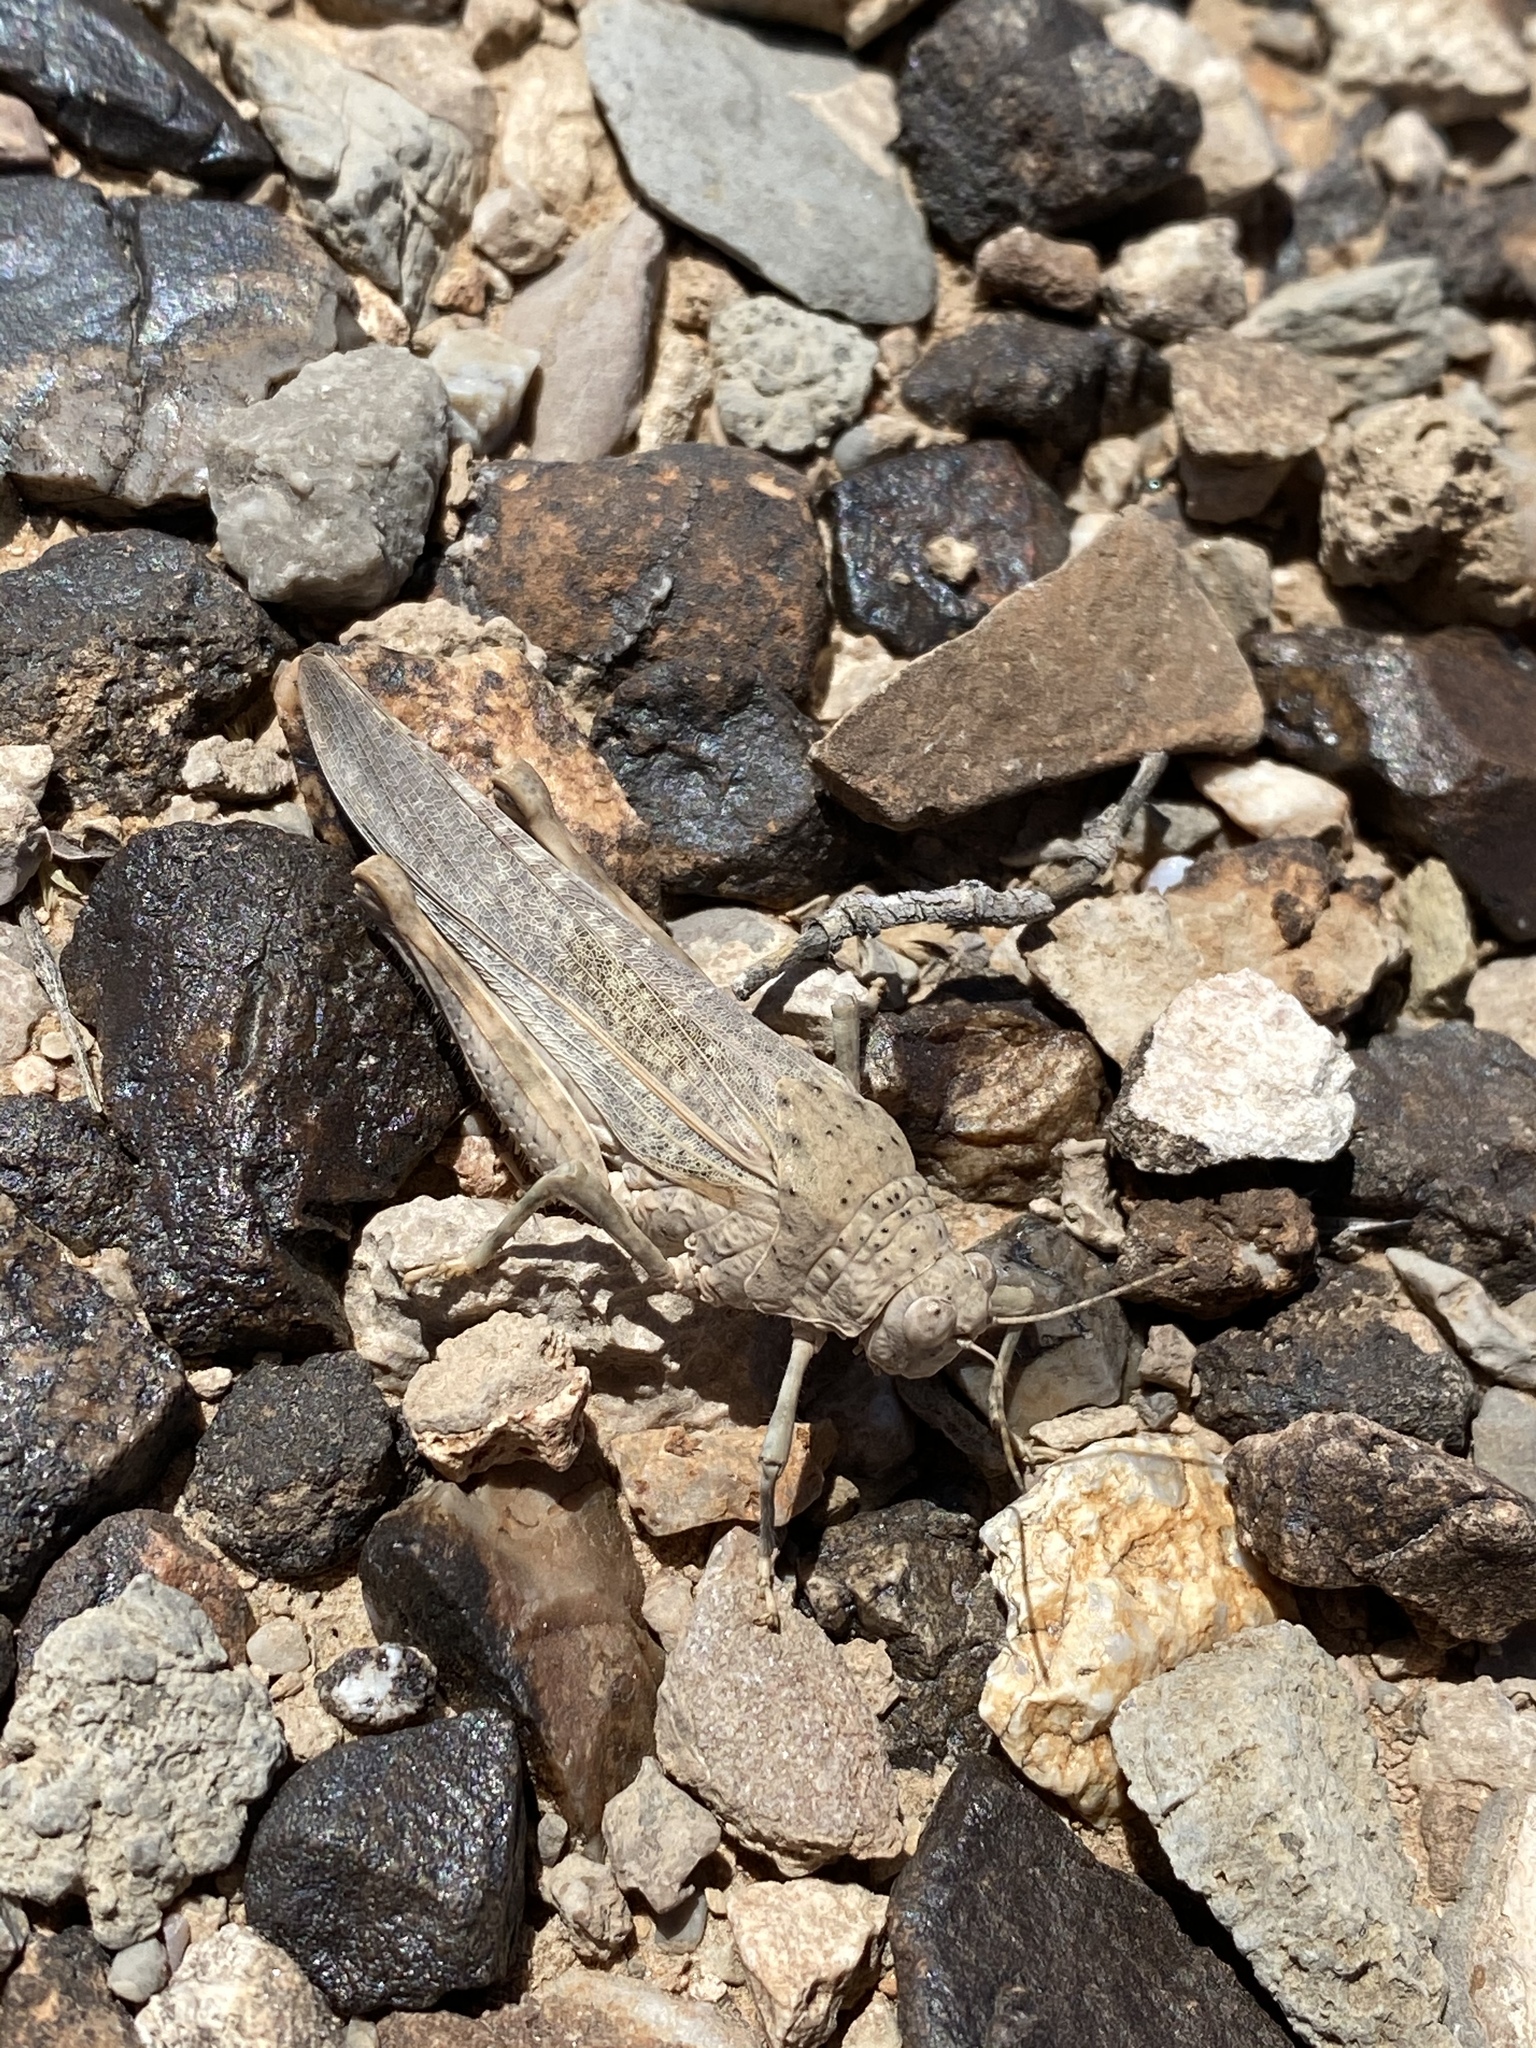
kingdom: Animalia
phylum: Arthropoda
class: Insecta
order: Orthoptera
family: Romaleidae
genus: Tytthotyle
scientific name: Tytthotyle maculata
